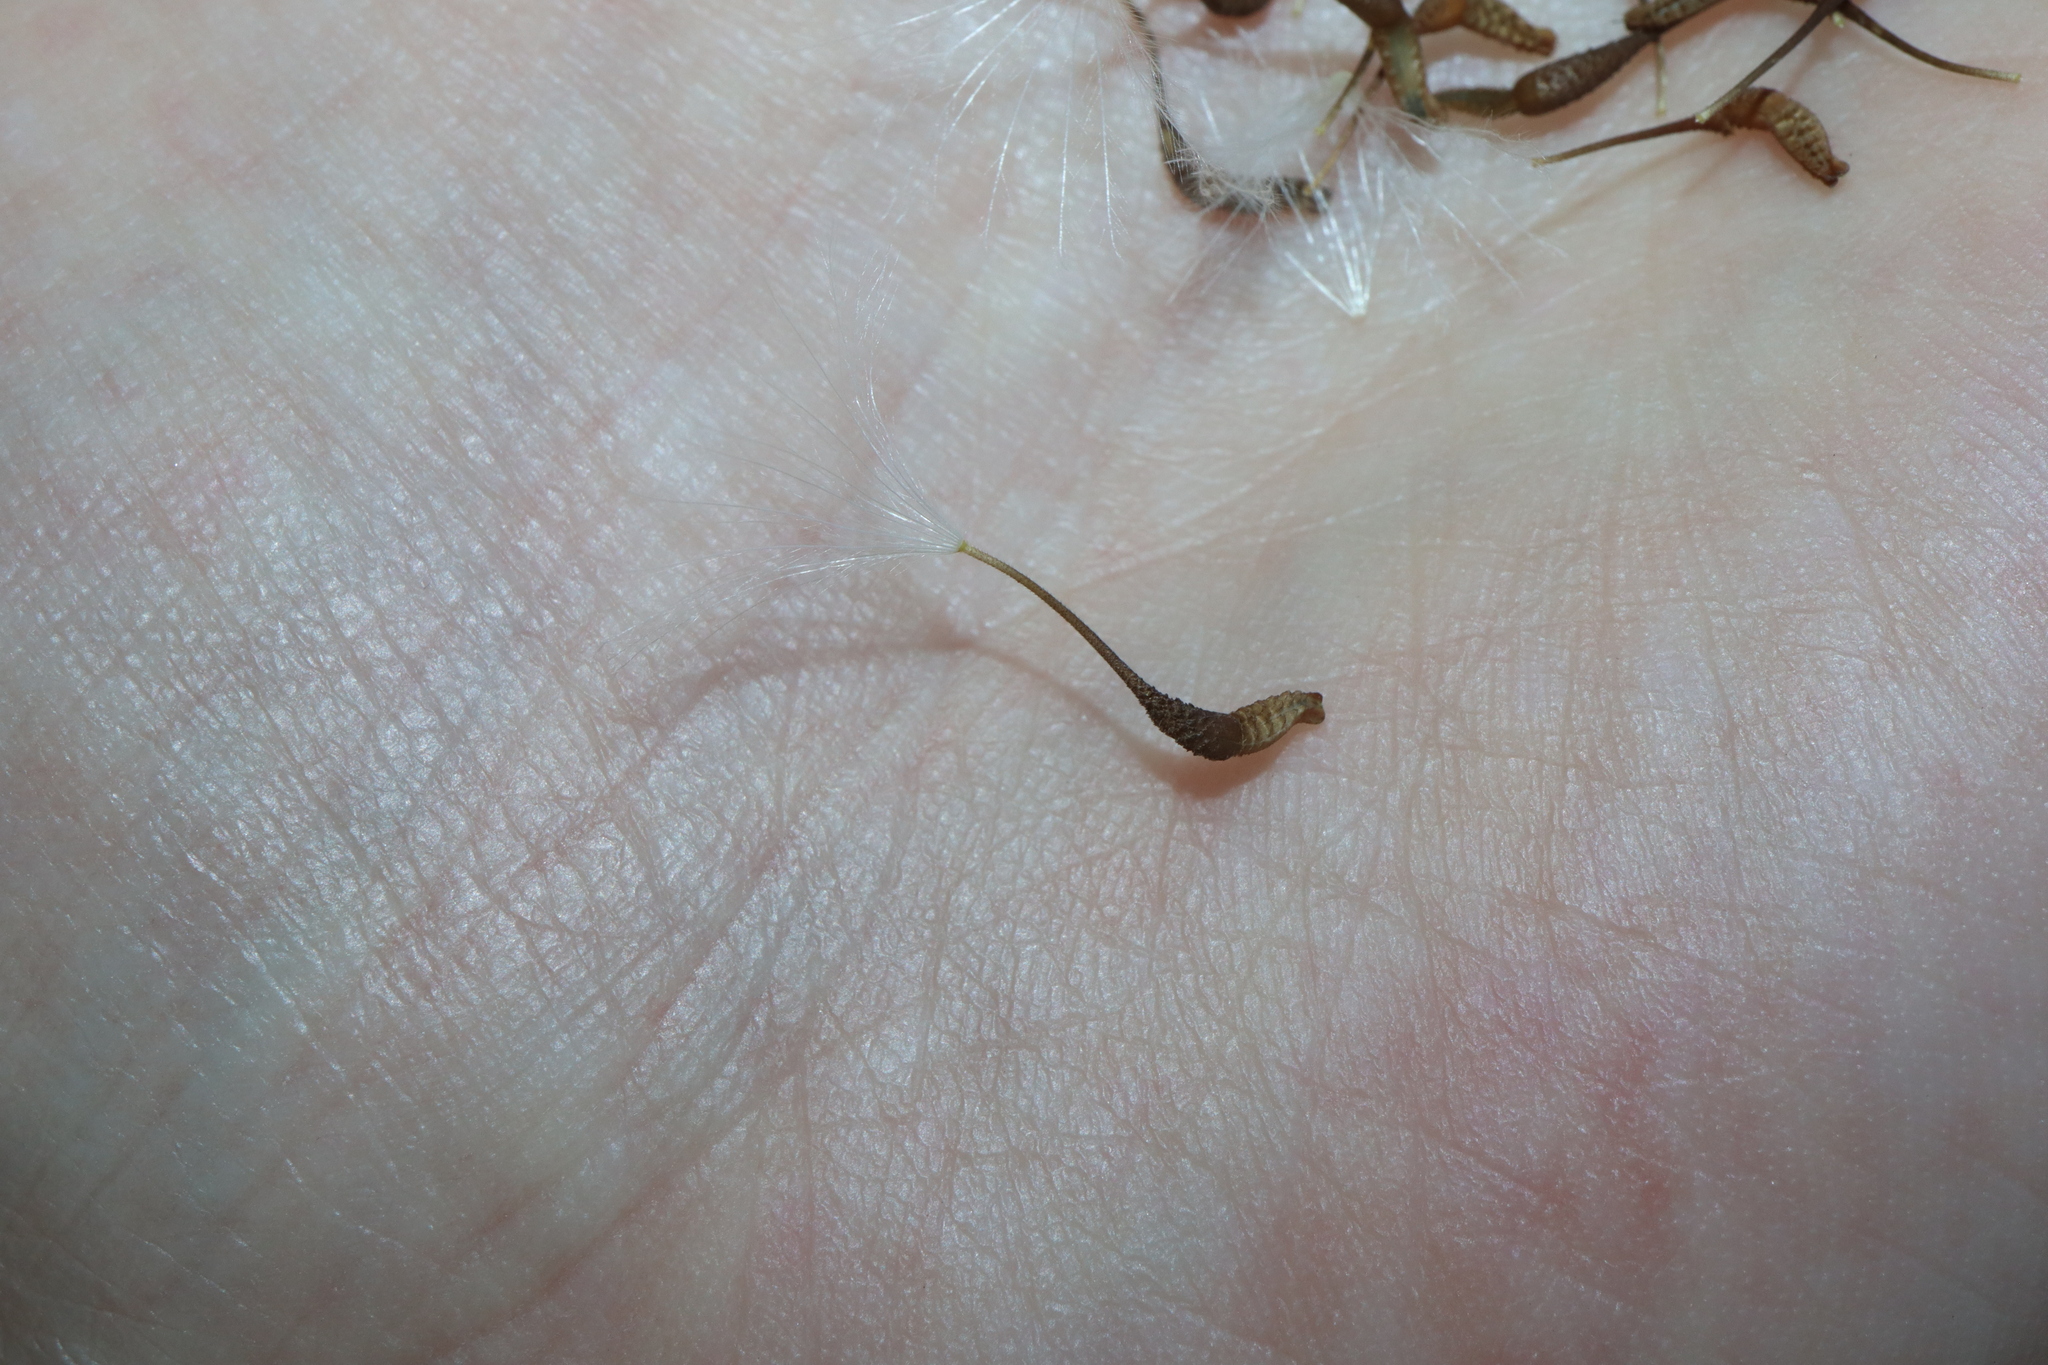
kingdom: Plantae
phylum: Tracheophyta
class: Magnoliopsida
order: Asterales
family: Asteraceae
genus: Urospermum
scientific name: Urospermum picroides
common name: False hawkbit
